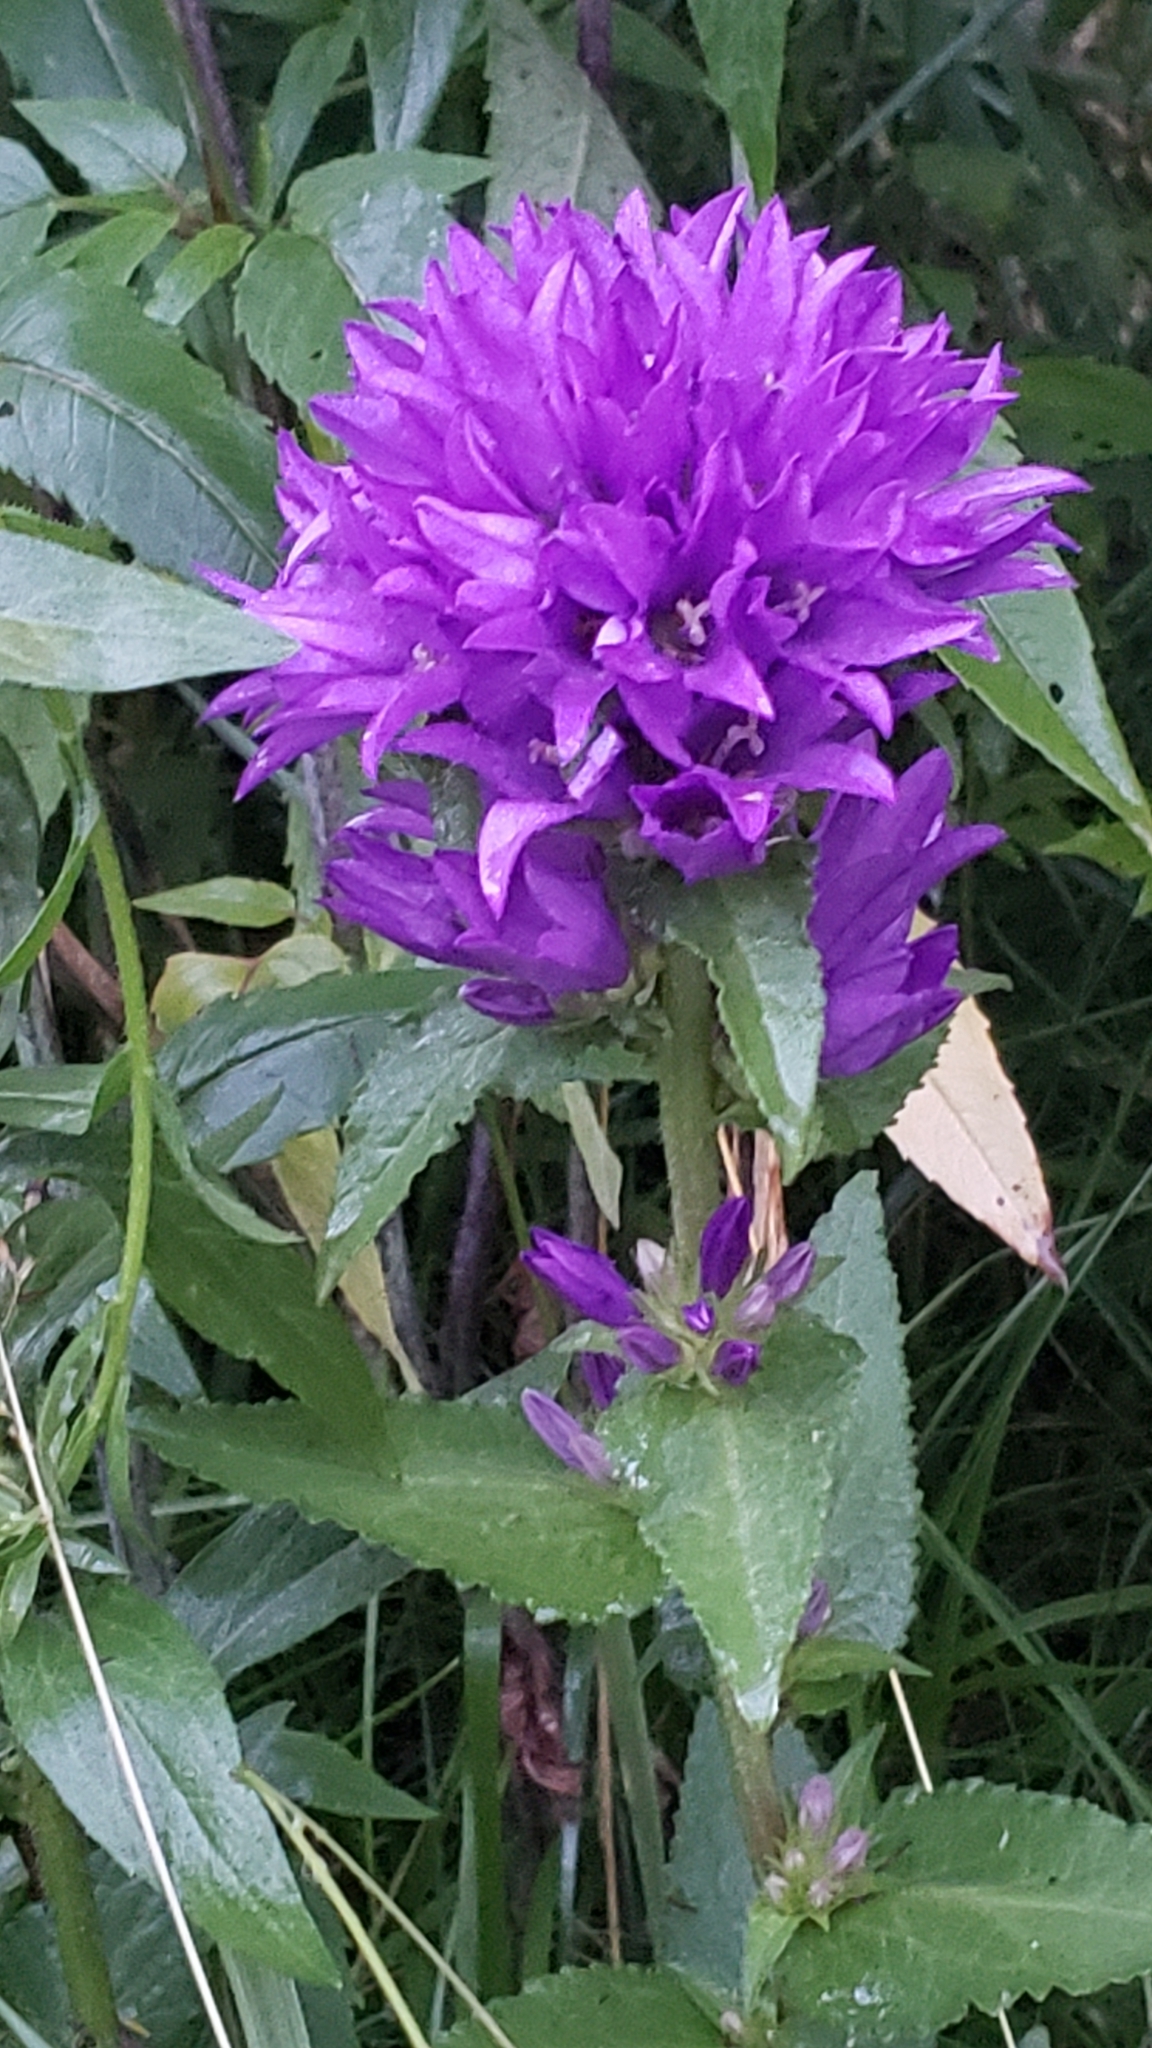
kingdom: Plantae
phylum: Tracheophyta
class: Magnoliopsida
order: Asterales
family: Campanulaceae
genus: Campanula
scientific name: Campanula glomerata
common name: Clustered bellflower
